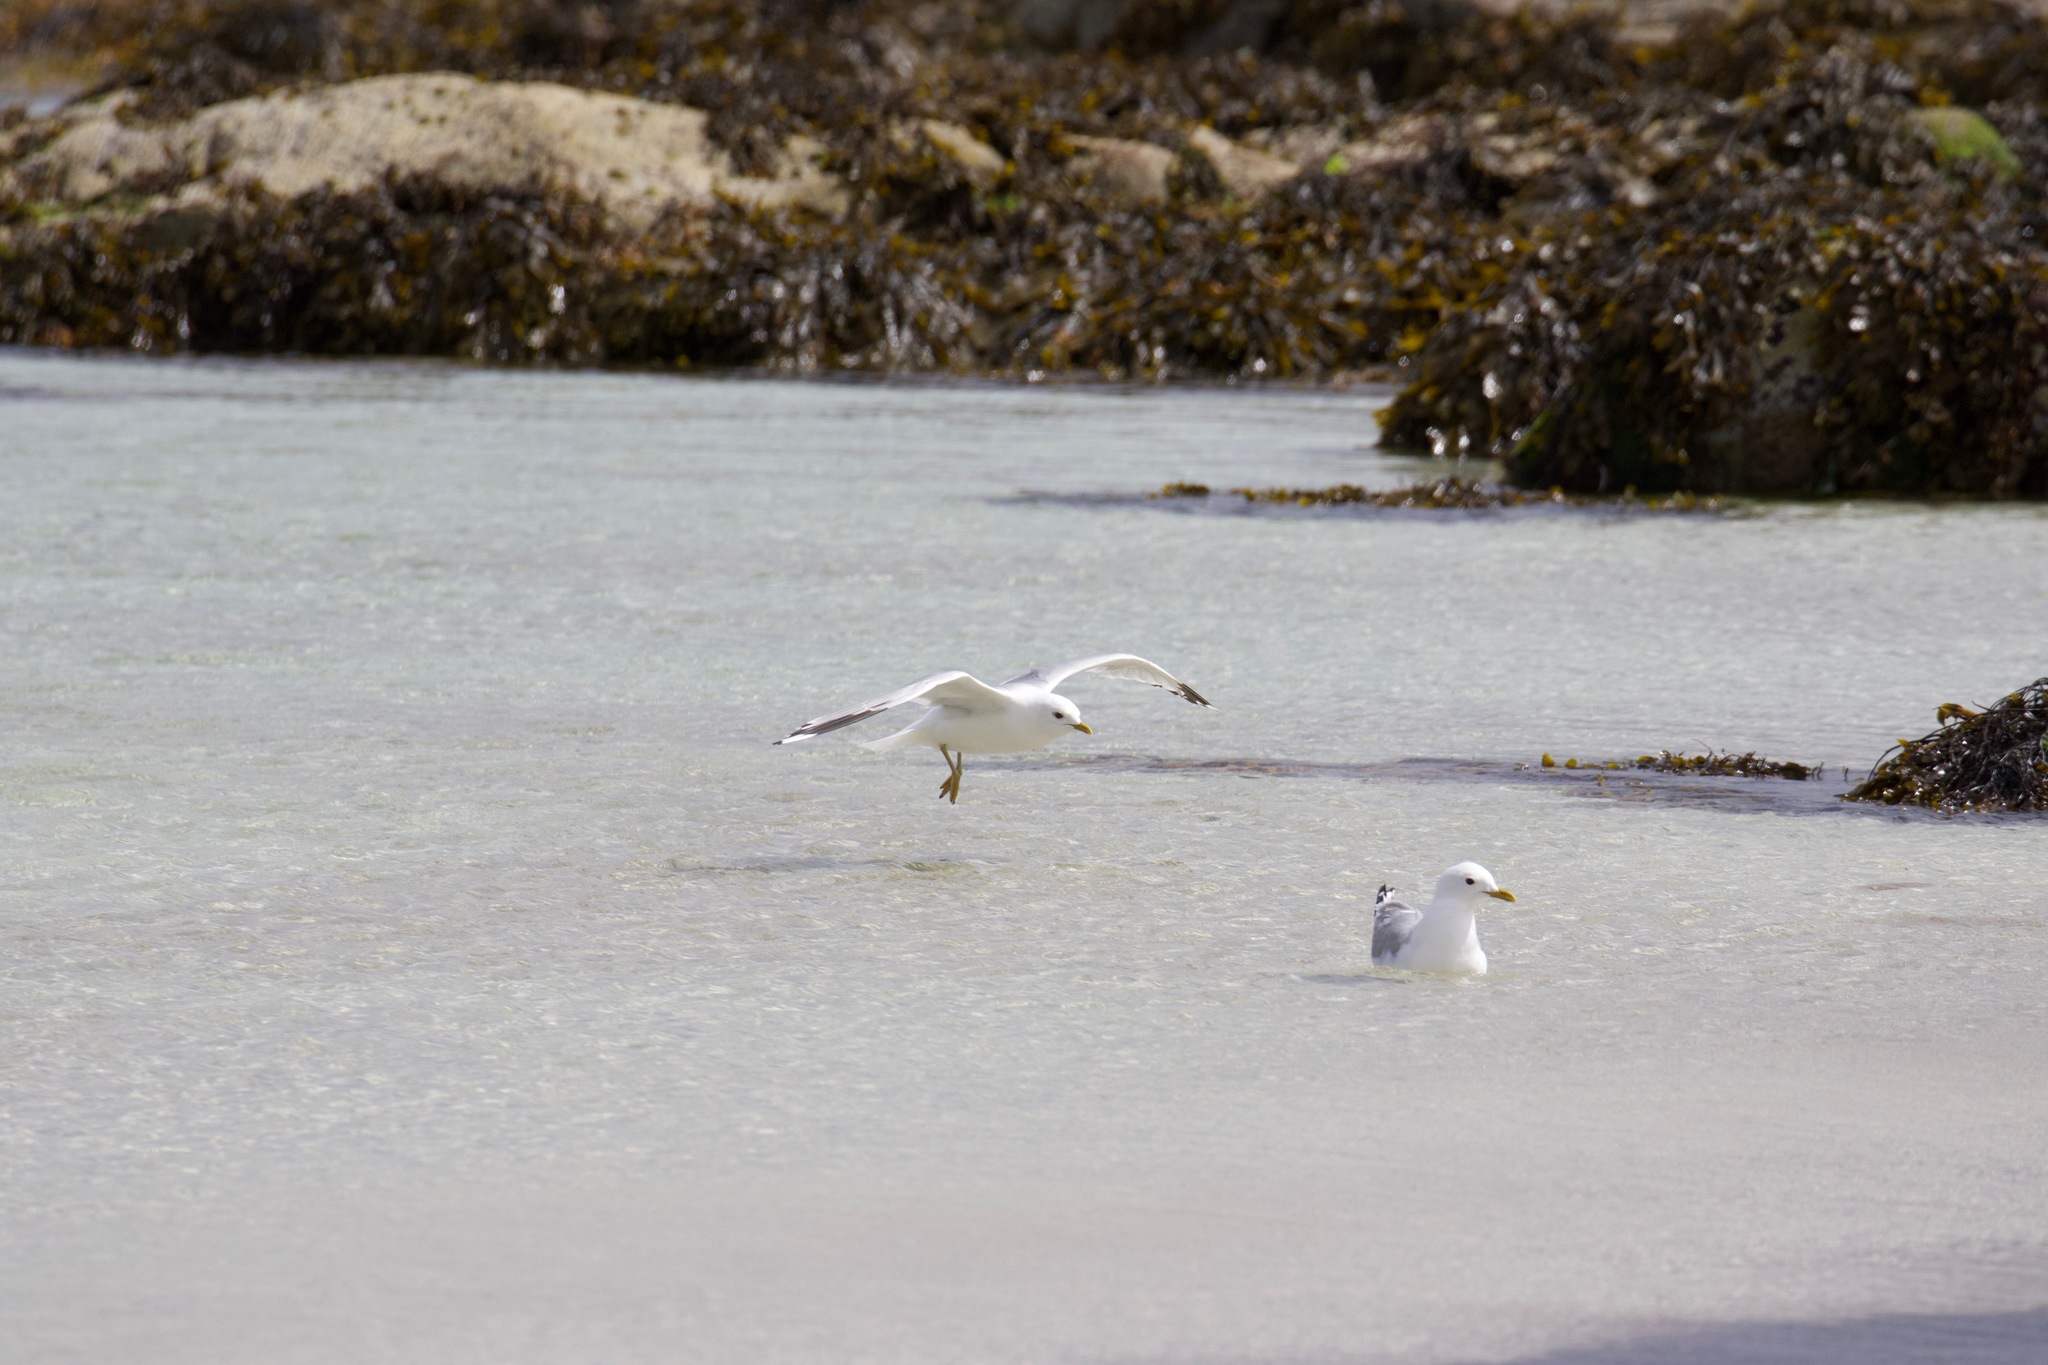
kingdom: Animalia
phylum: Chordata
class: Aves
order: Charadriiformes
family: Laridae
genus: Larus
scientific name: Larus canus
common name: Mew gull
